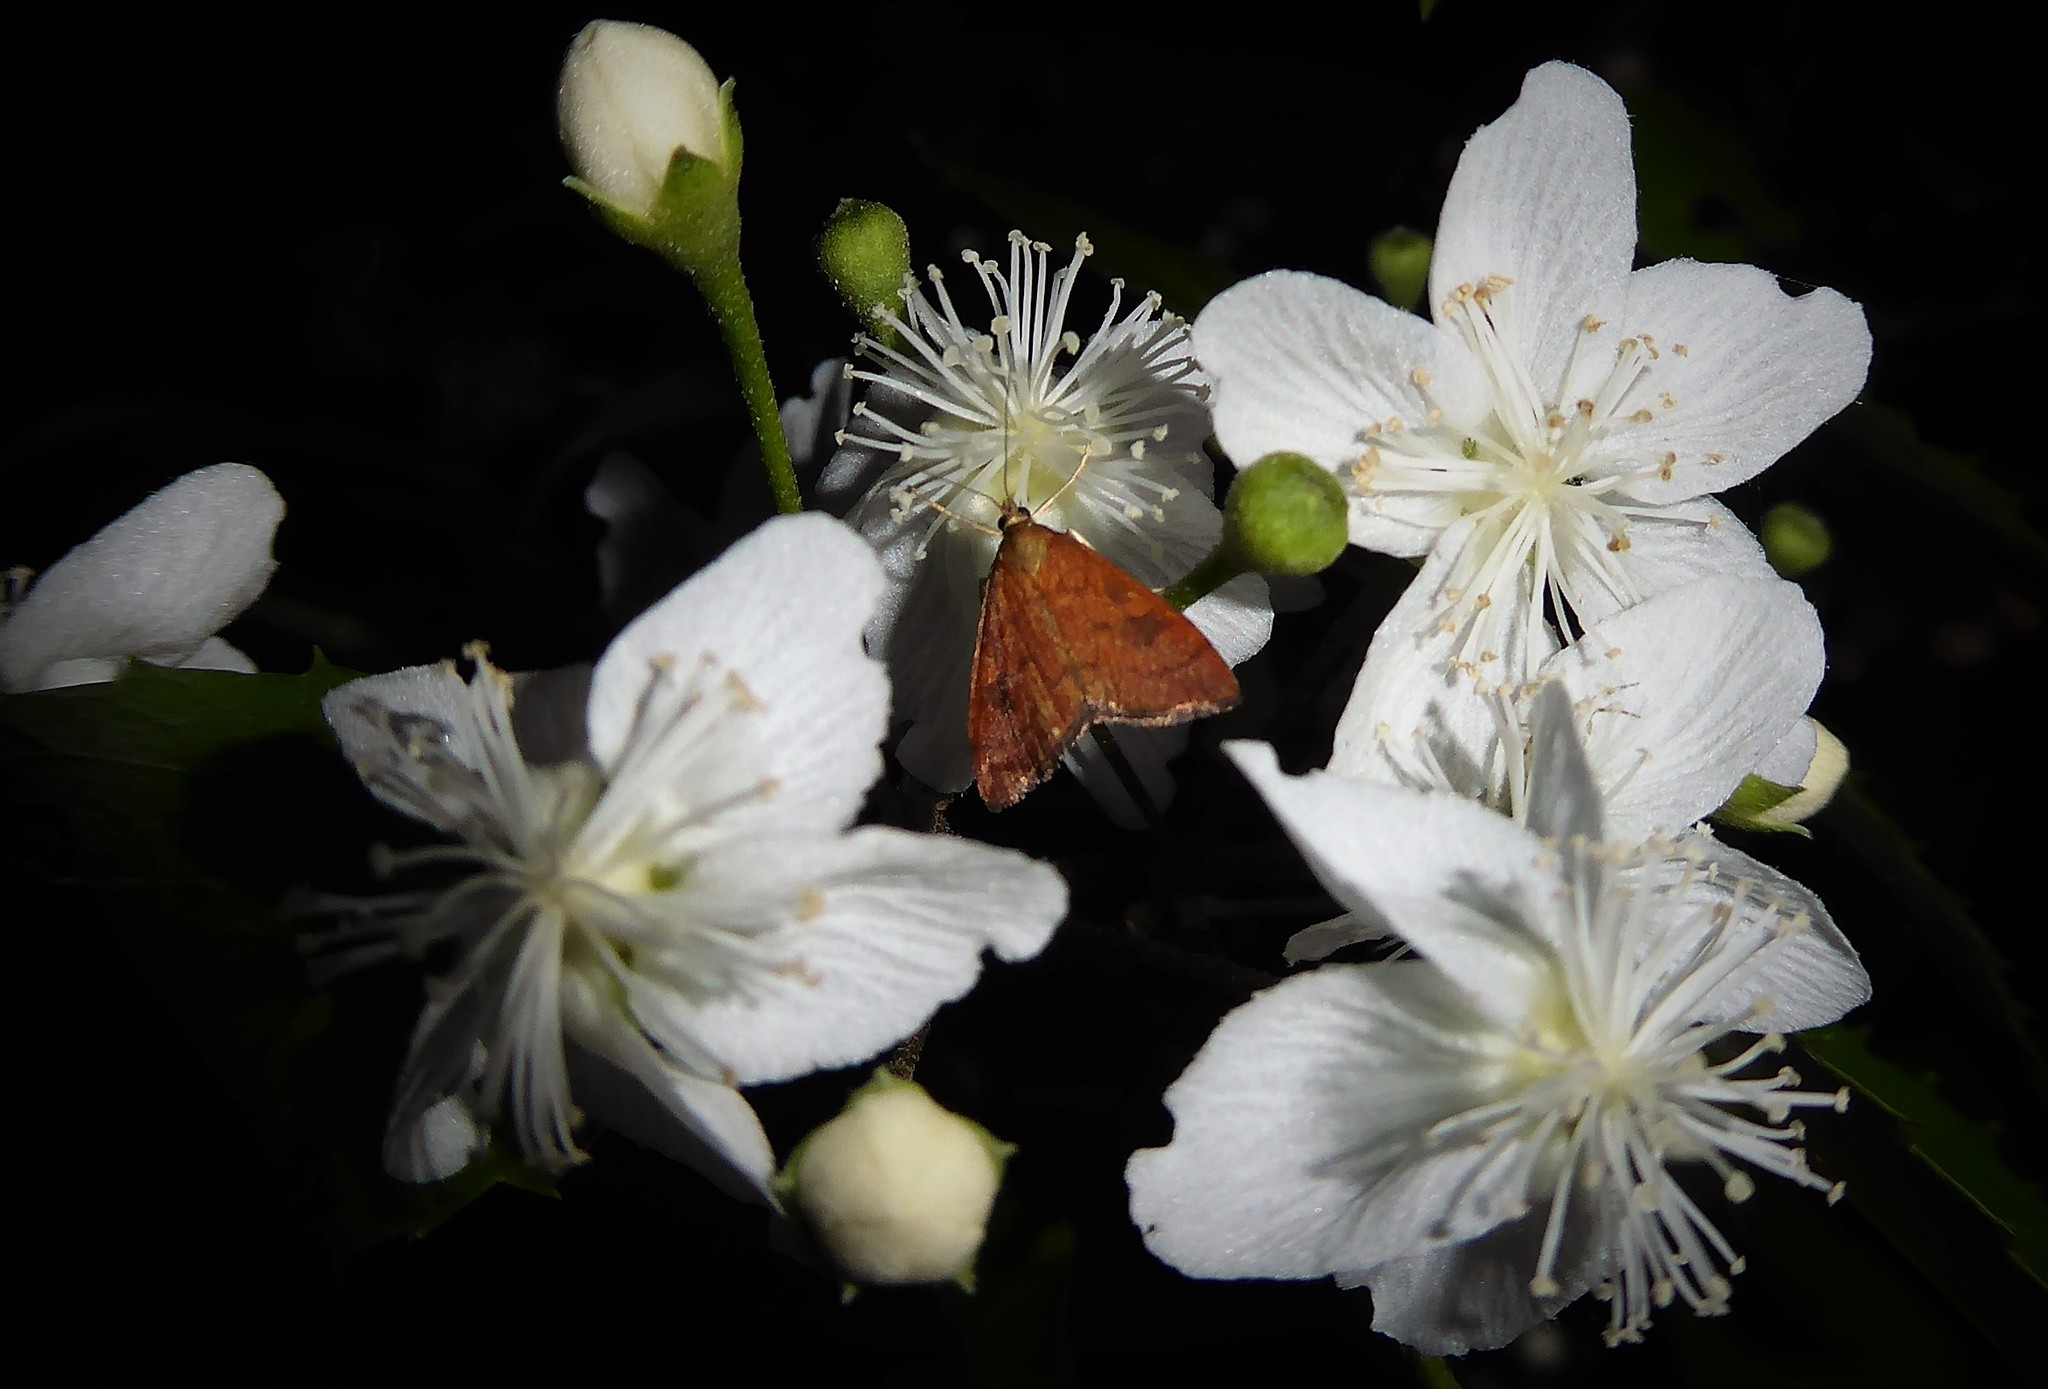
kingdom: Animalia
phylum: Arthropoda
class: Insecta
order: Lepidoptera
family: Crambidae
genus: Udea
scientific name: Udea Mnesictena flavidalis
